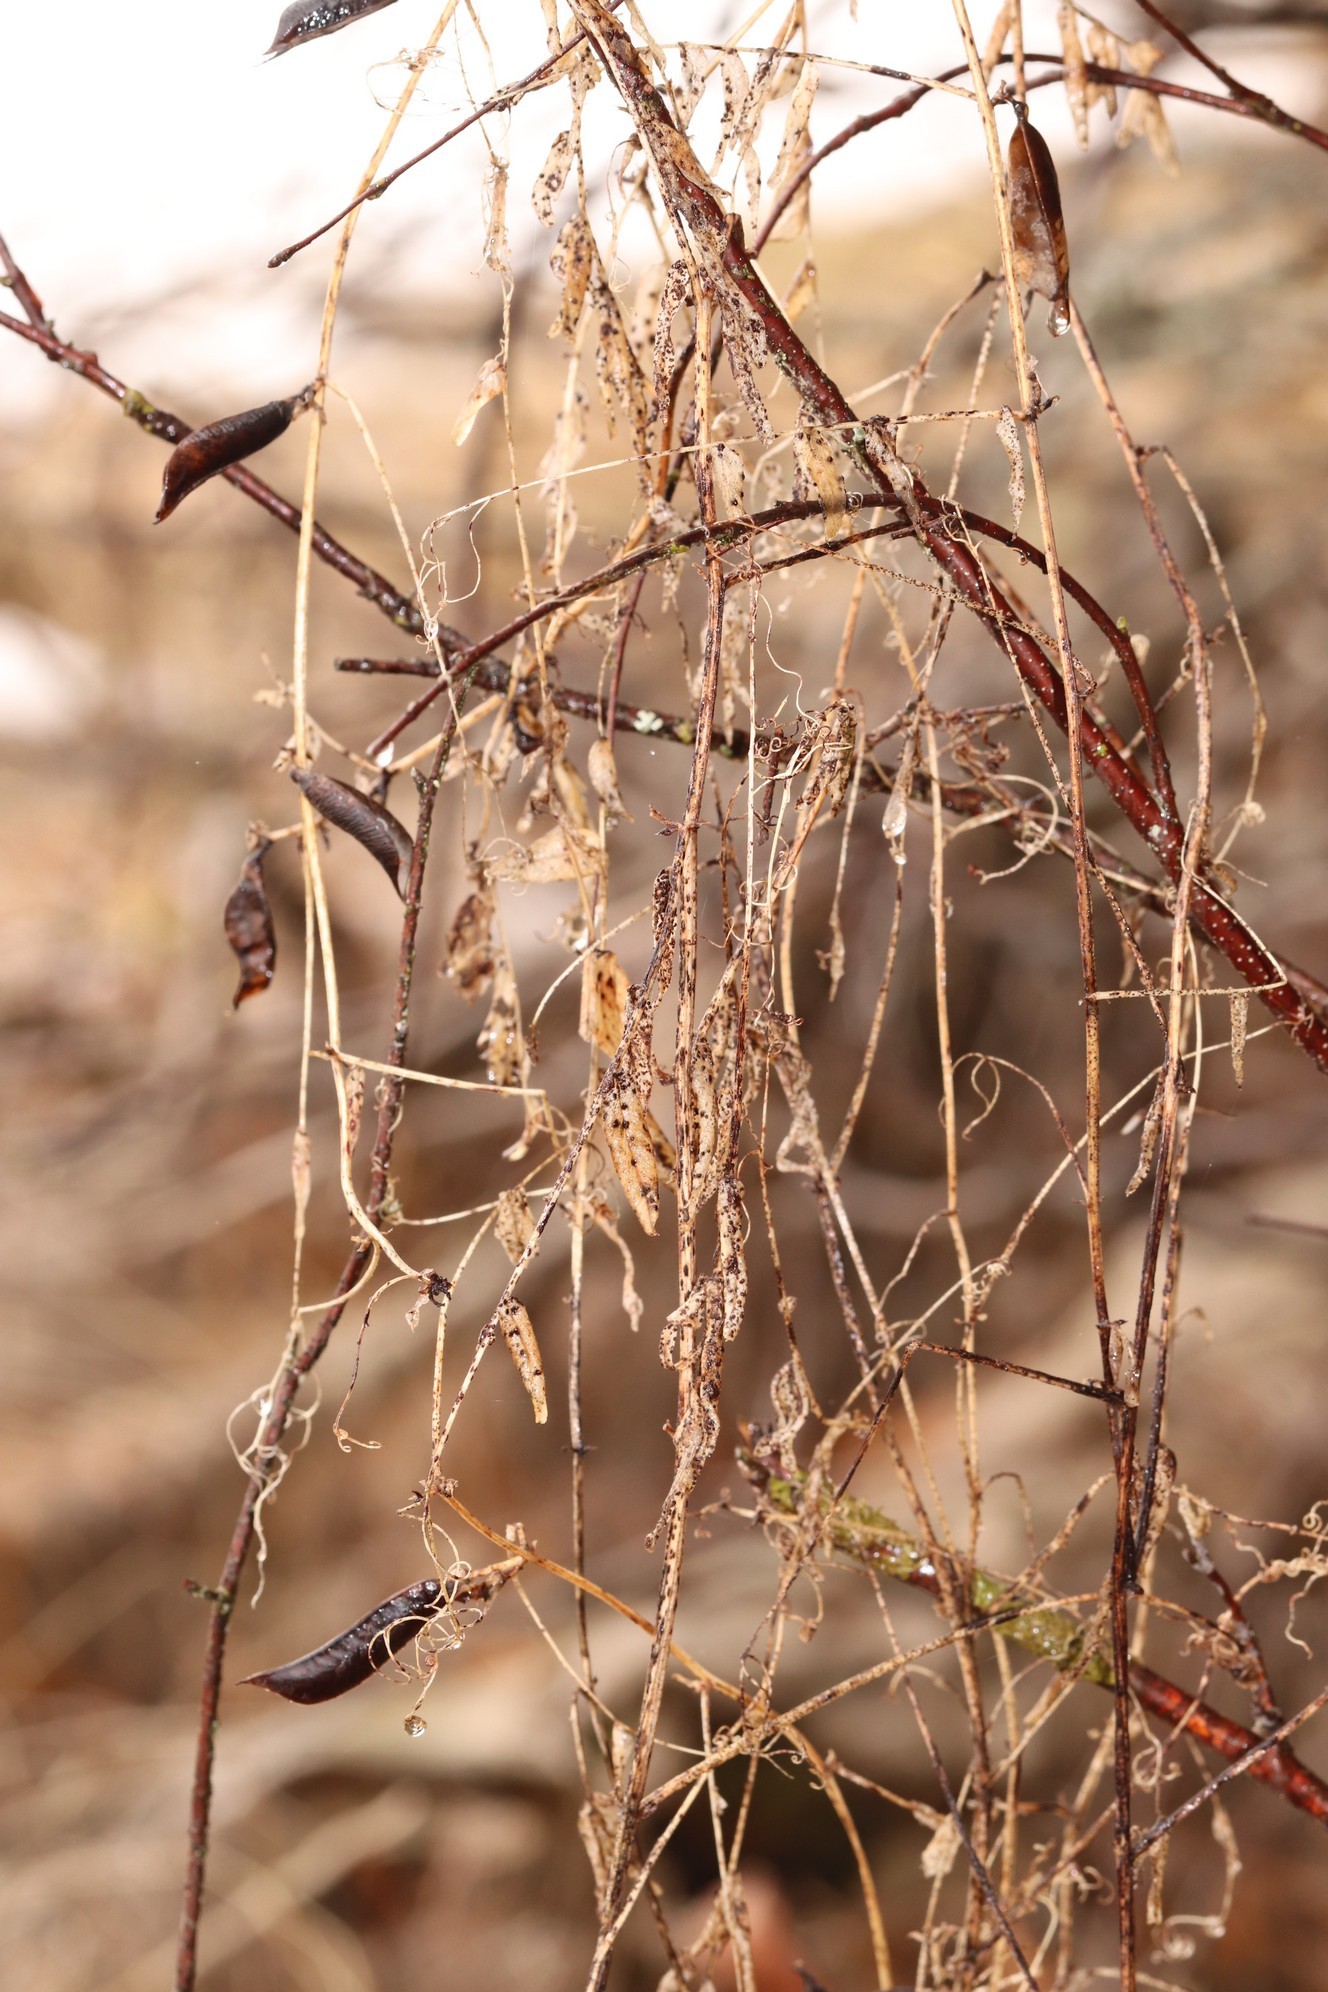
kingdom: Plantae
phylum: Tracheophyta
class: Magnoliopsida
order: Fabales
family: Fabaceae
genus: Vicia
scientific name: Vicia cracca
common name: Bird vetch
